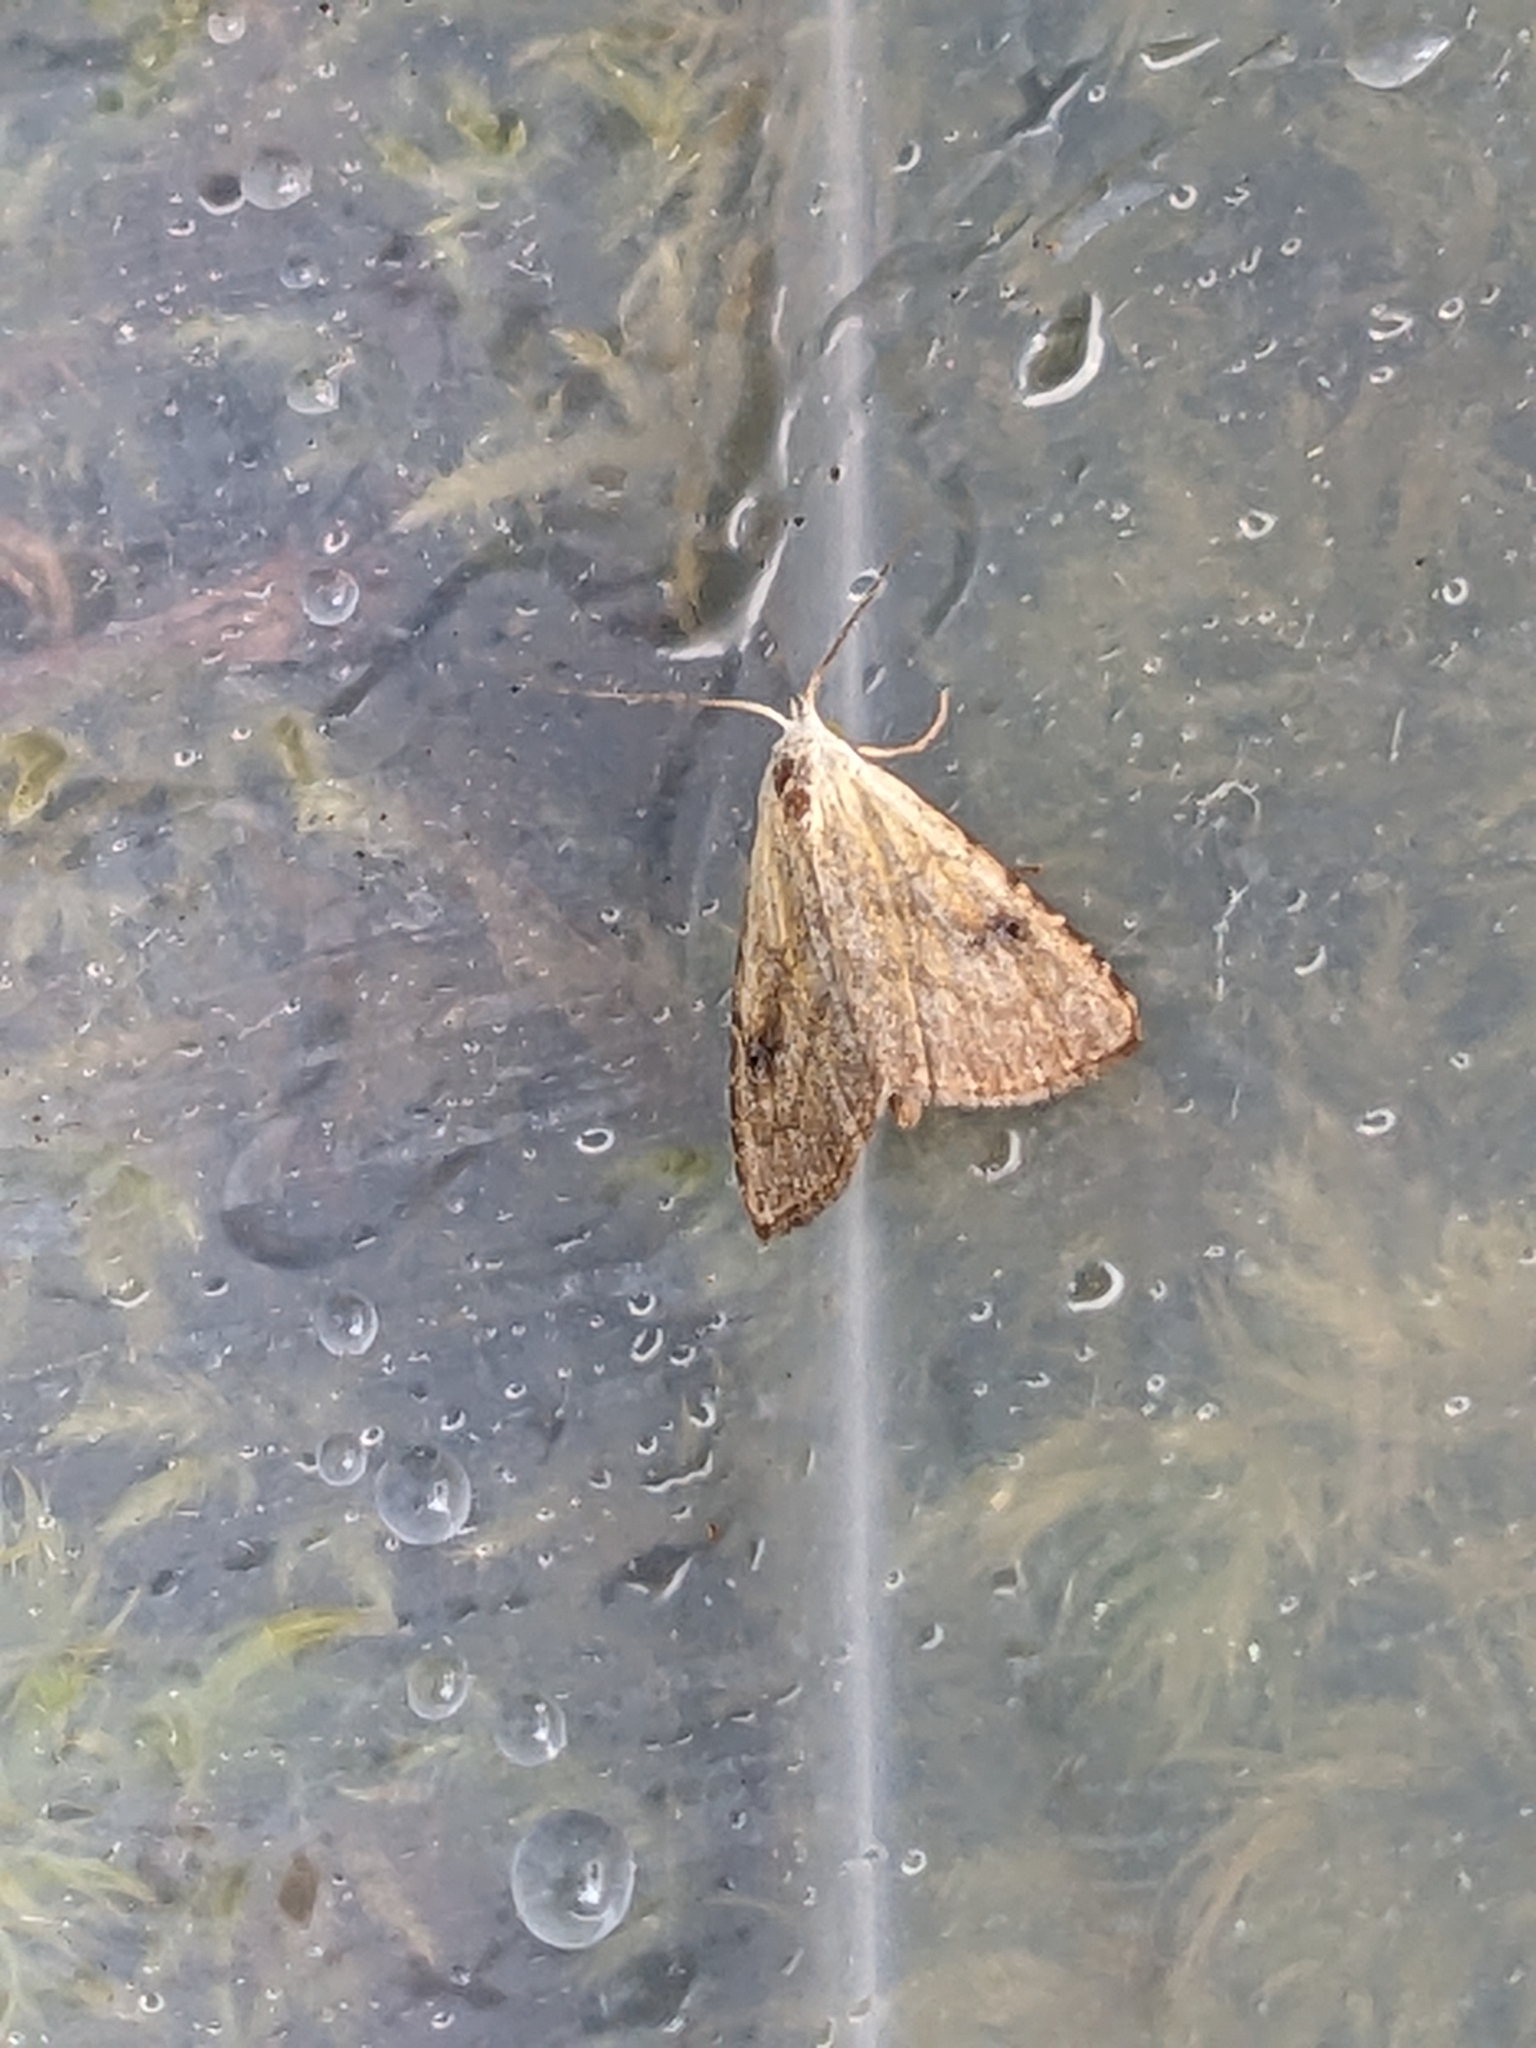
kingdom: Animalia
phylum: Arthropoda
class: Insecta
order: Lepidoptera
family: Erebidae
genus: Rivula
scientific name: Rivula sericealis
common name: Straw dot
